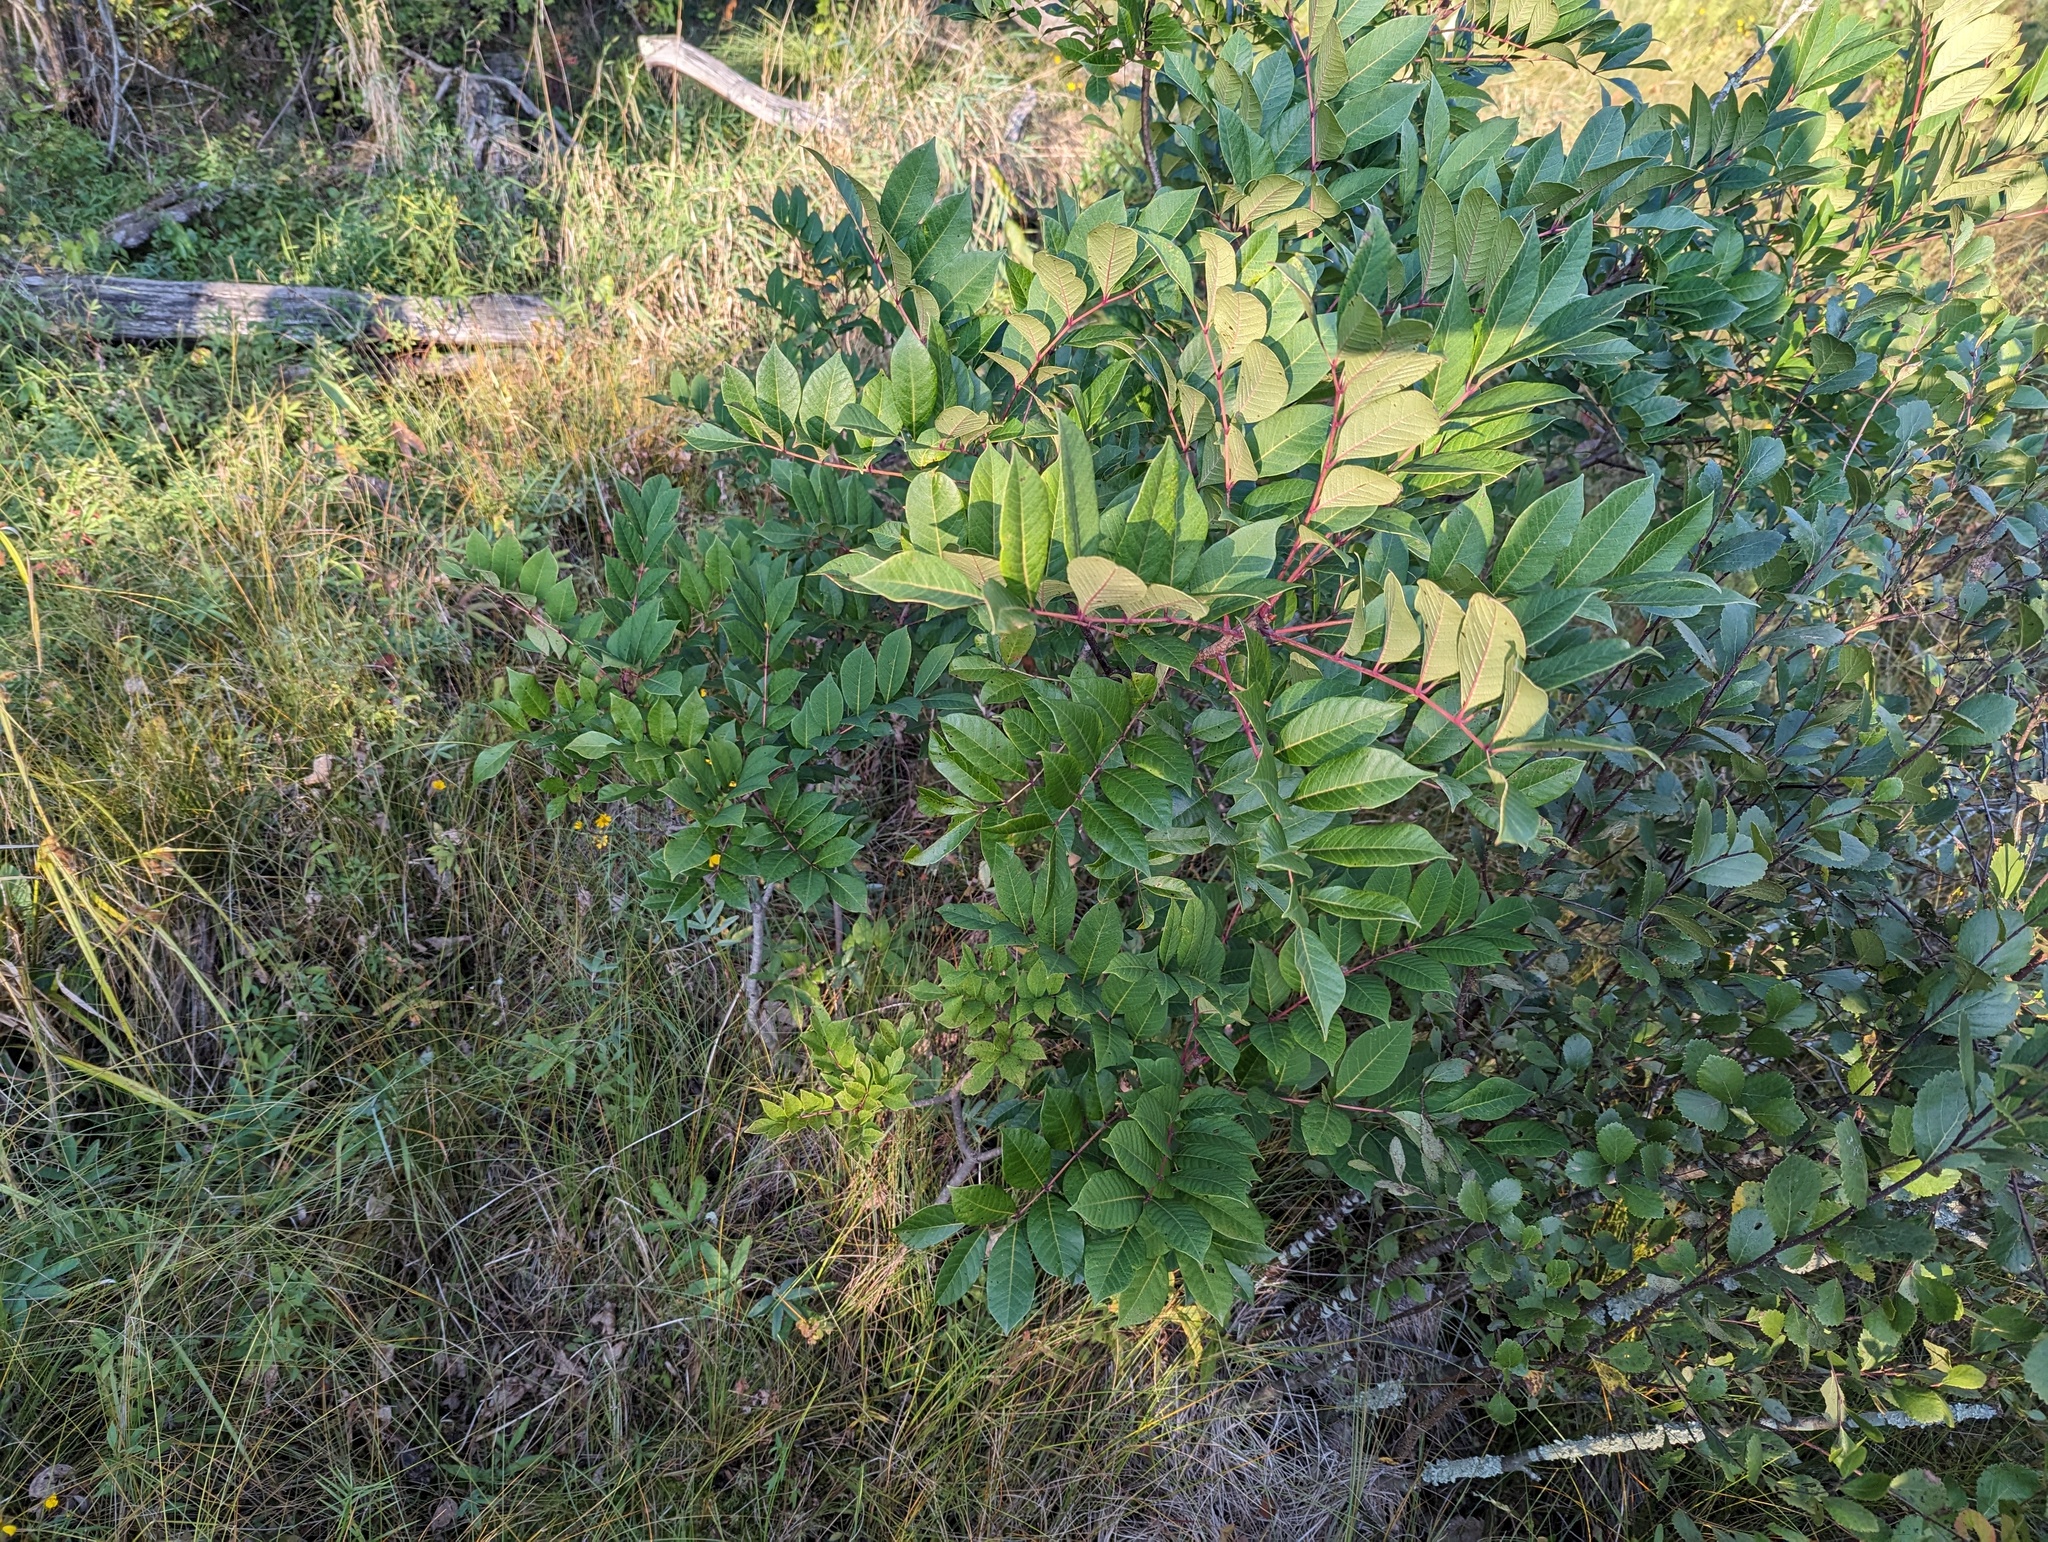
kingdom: Plantae
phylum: Tracheophyta
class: Magnoliopsida
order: Sapindales
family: Anacardiaceae
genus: Toxicodendron
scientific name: Toxicodendron vernix
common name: Poison sumac
